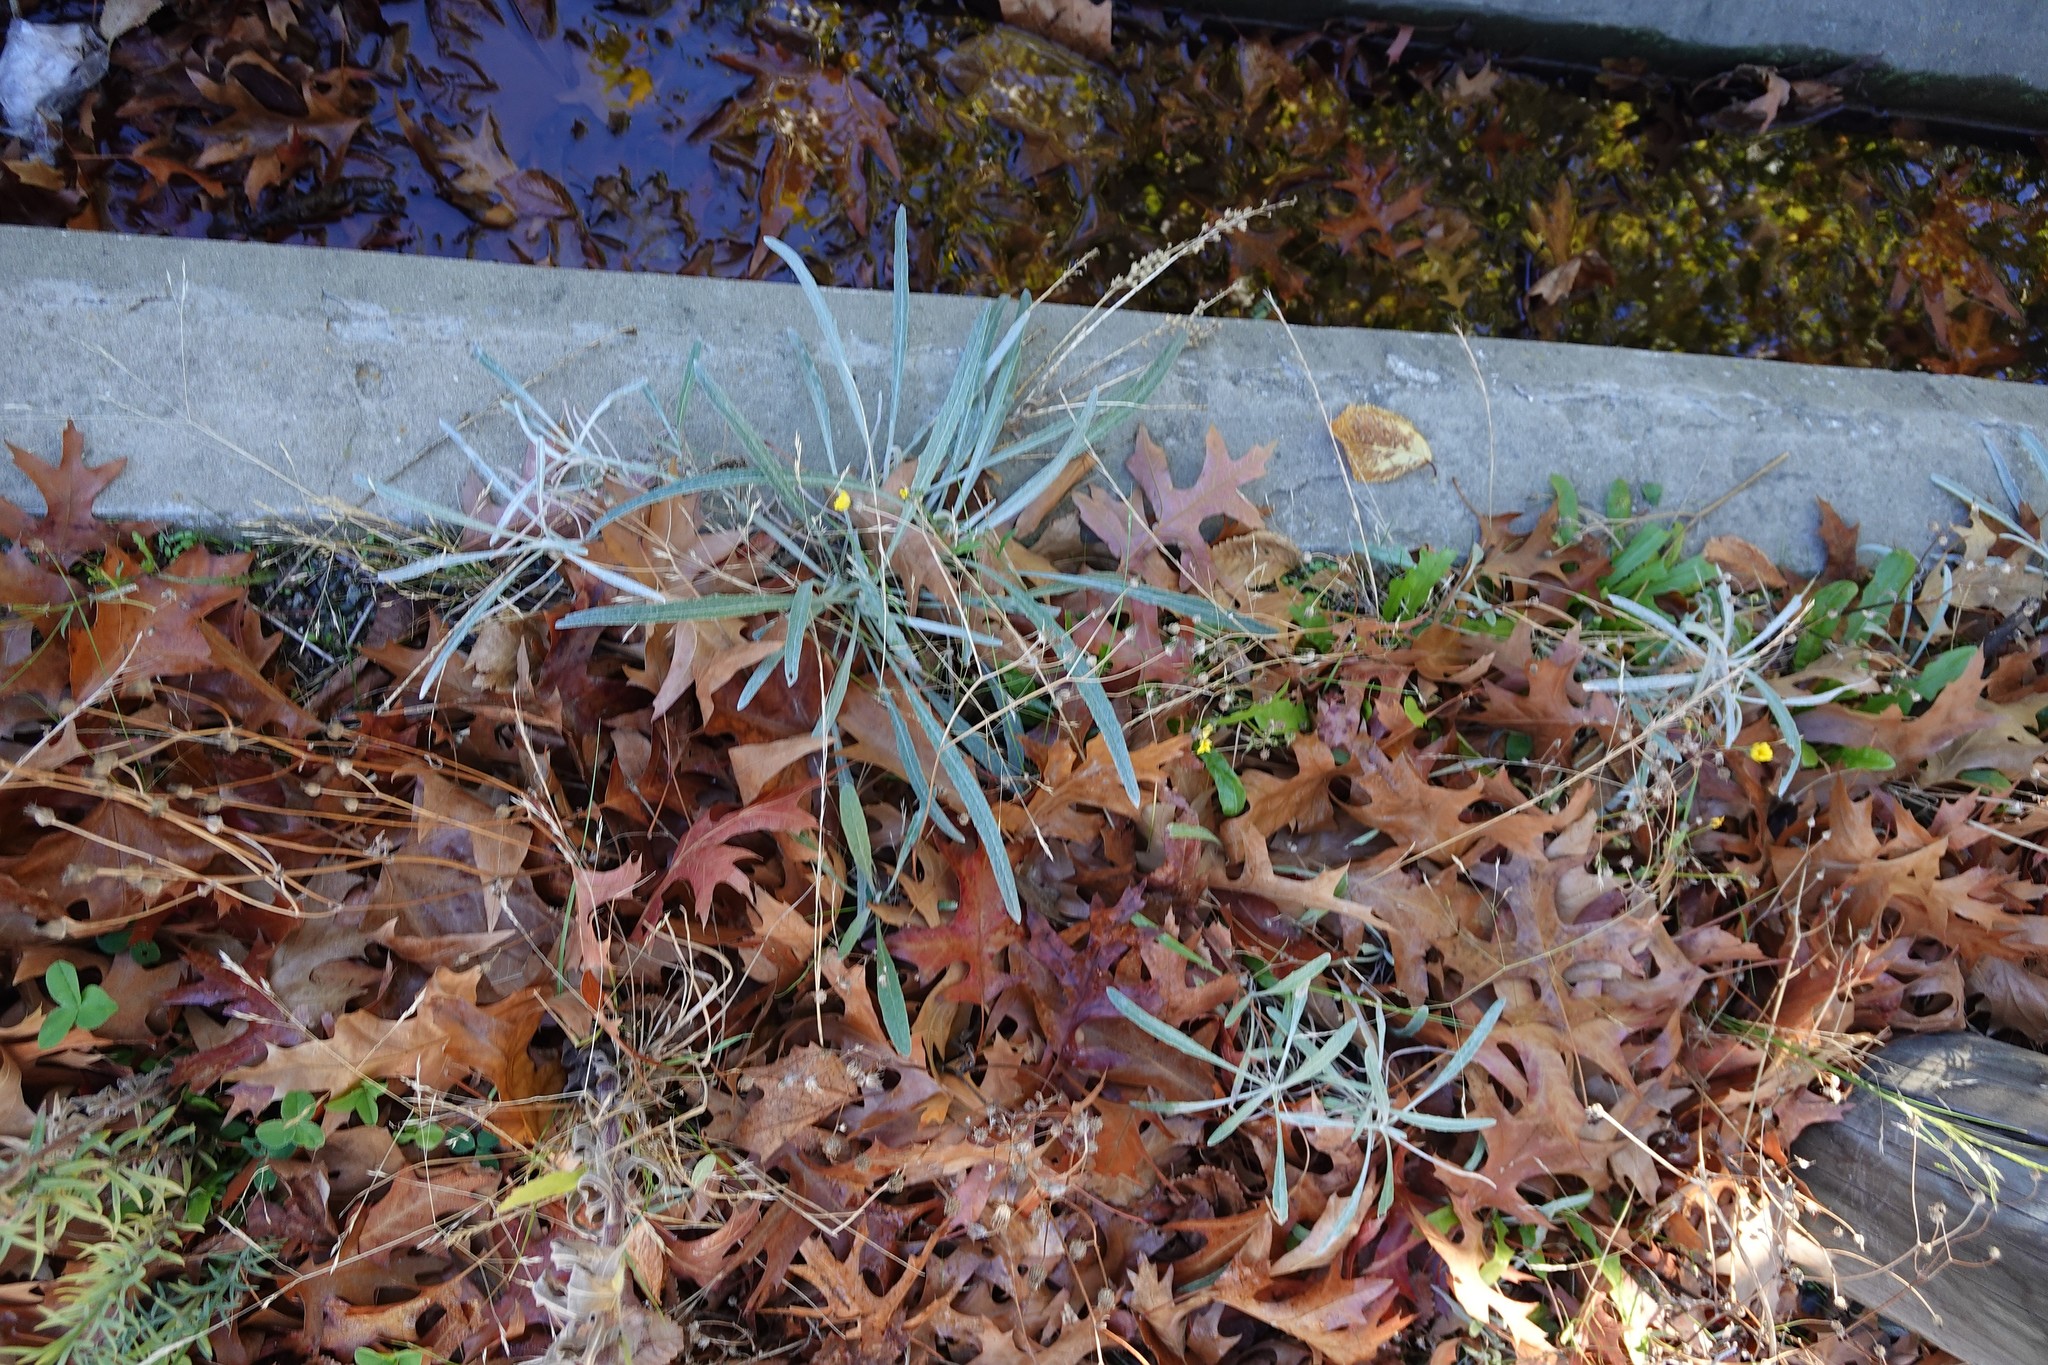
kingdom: Plantae
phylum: Tracheophyta
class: Magnoliopsida
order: Asterales
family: Asteraceae
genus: Senecio
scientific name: Senecio quadridentatus
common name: Cotton fireweed
